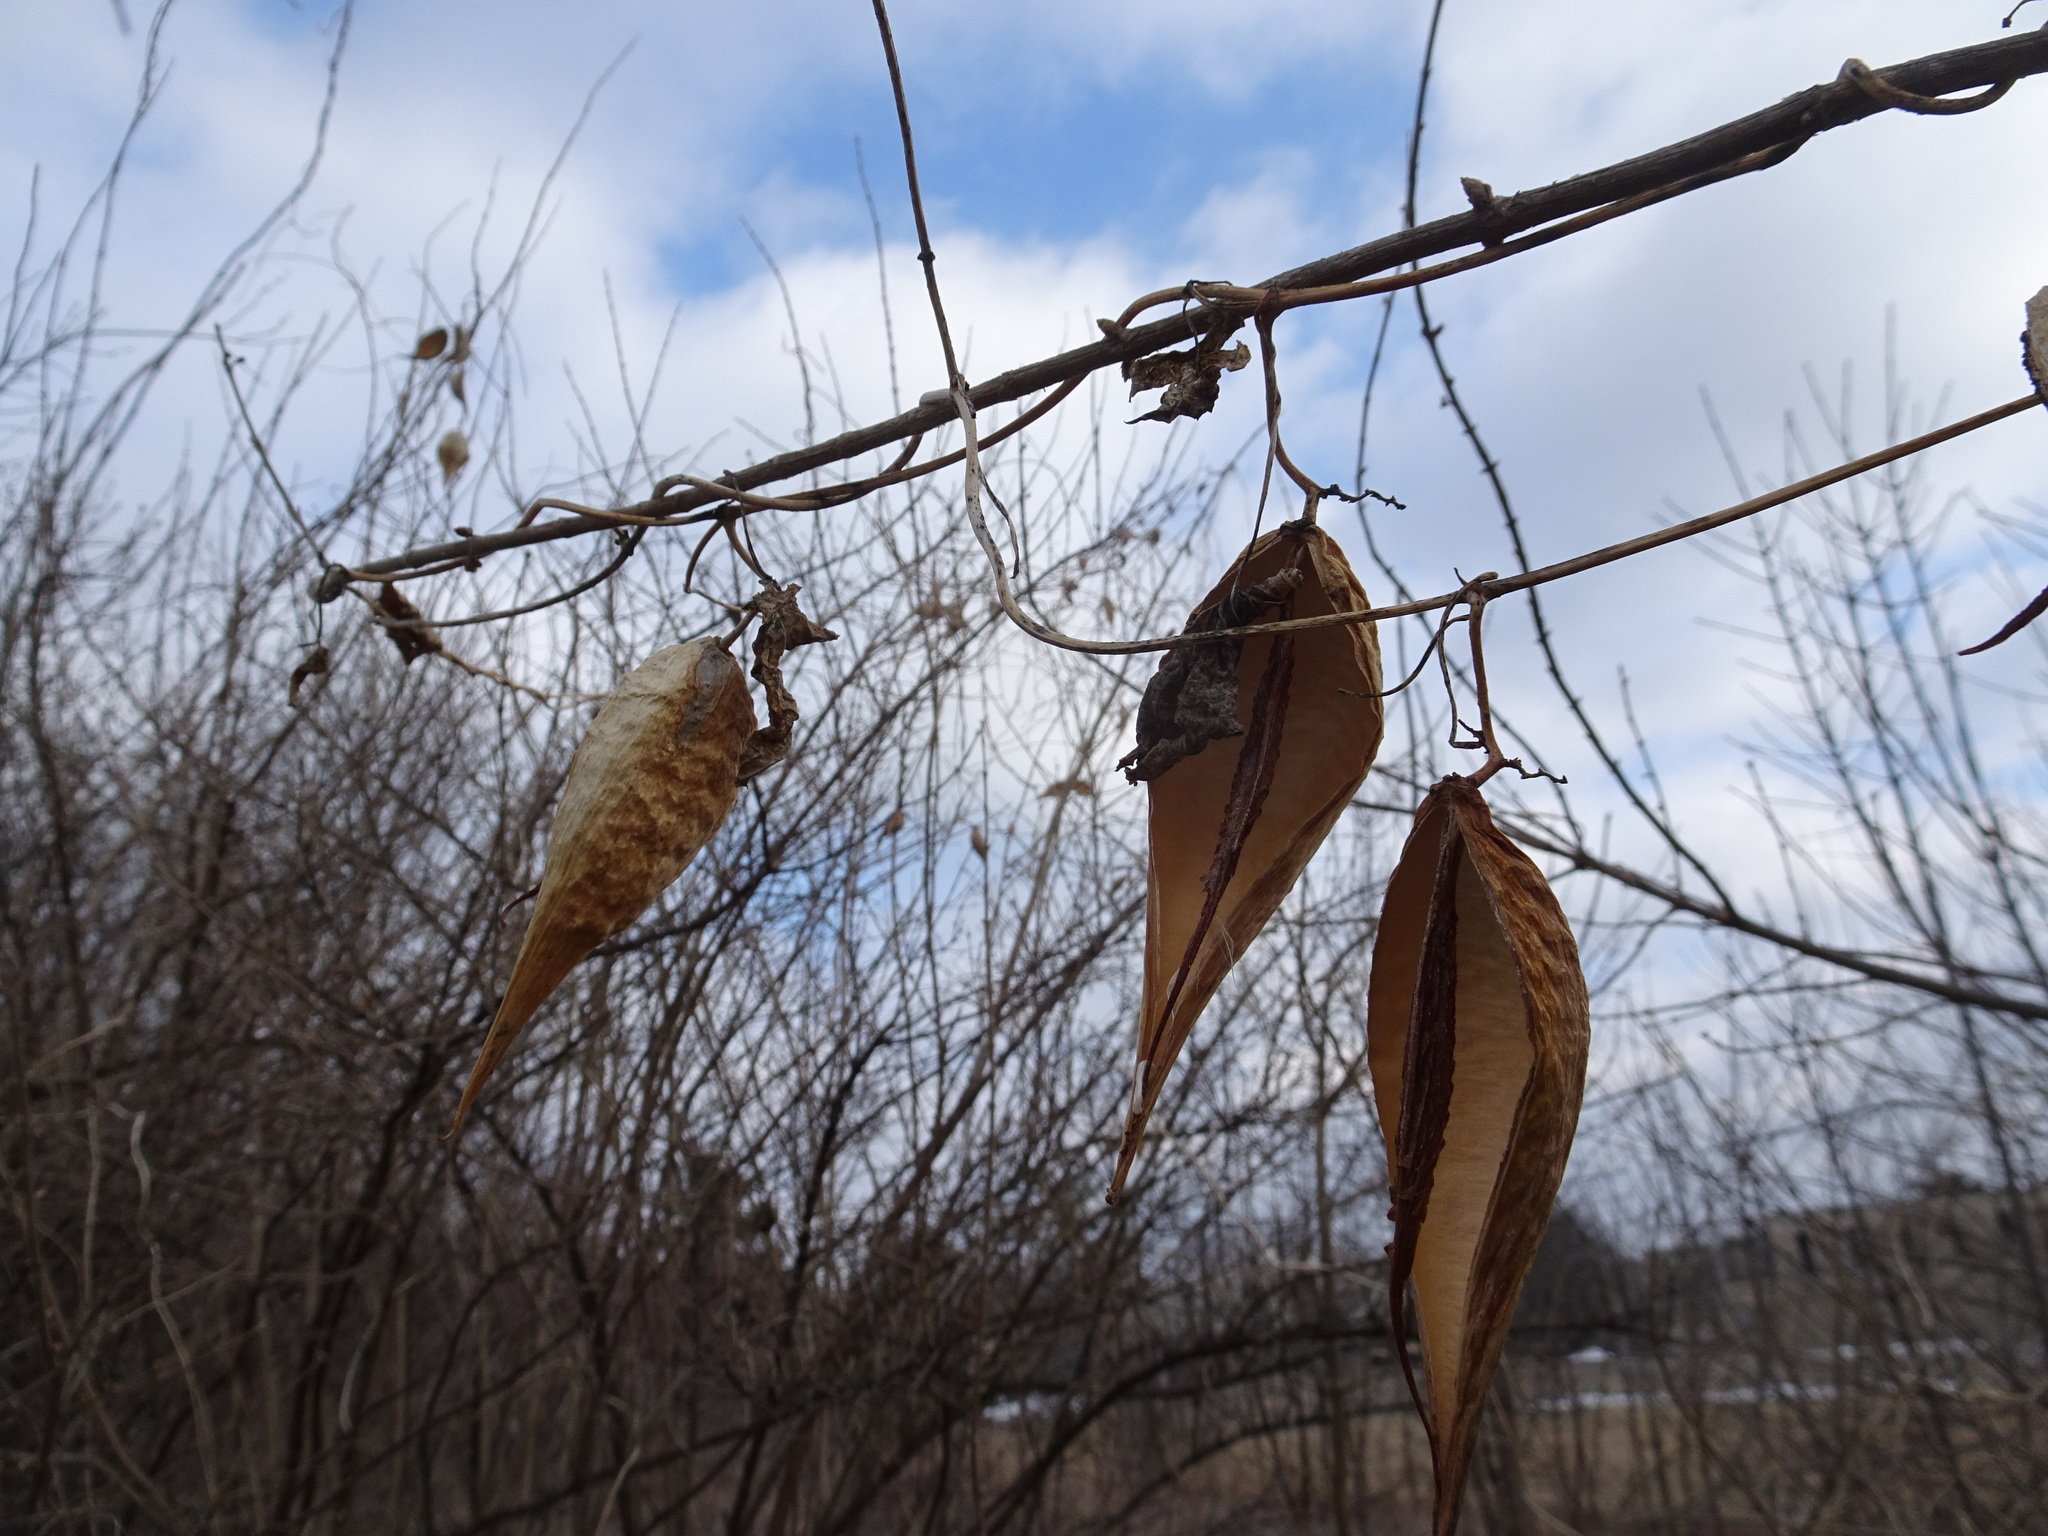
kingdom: Plantae
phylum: Tracheophyta
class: Magnoliopsida
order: Gentianales
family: Apocynaceae
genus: Cynanchum
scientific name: Cynanchum laeve
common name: Sandvine
